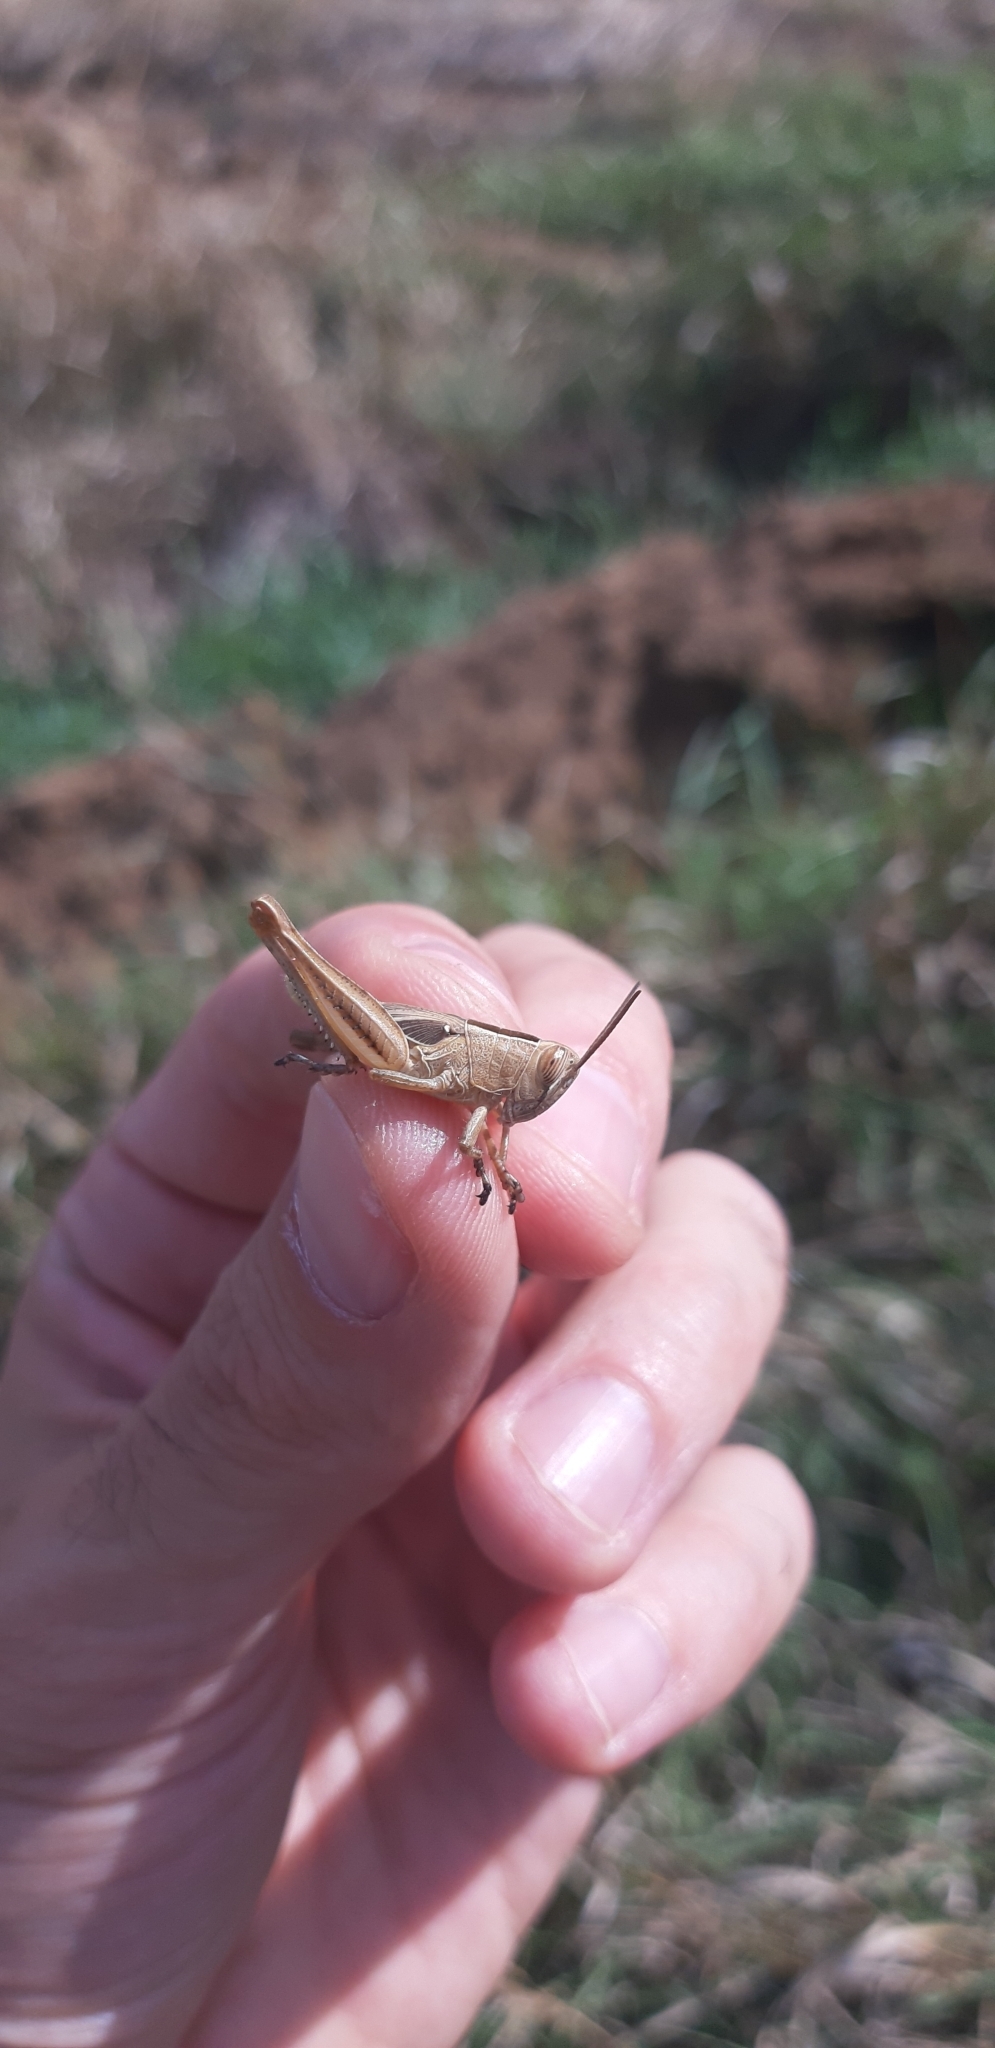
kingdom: Animalia
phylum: Arthropoda
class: Insecta
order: Orthoptera
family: Acrididae
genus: Eyprepocnemis
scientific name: Eyprepocnemis plorans
